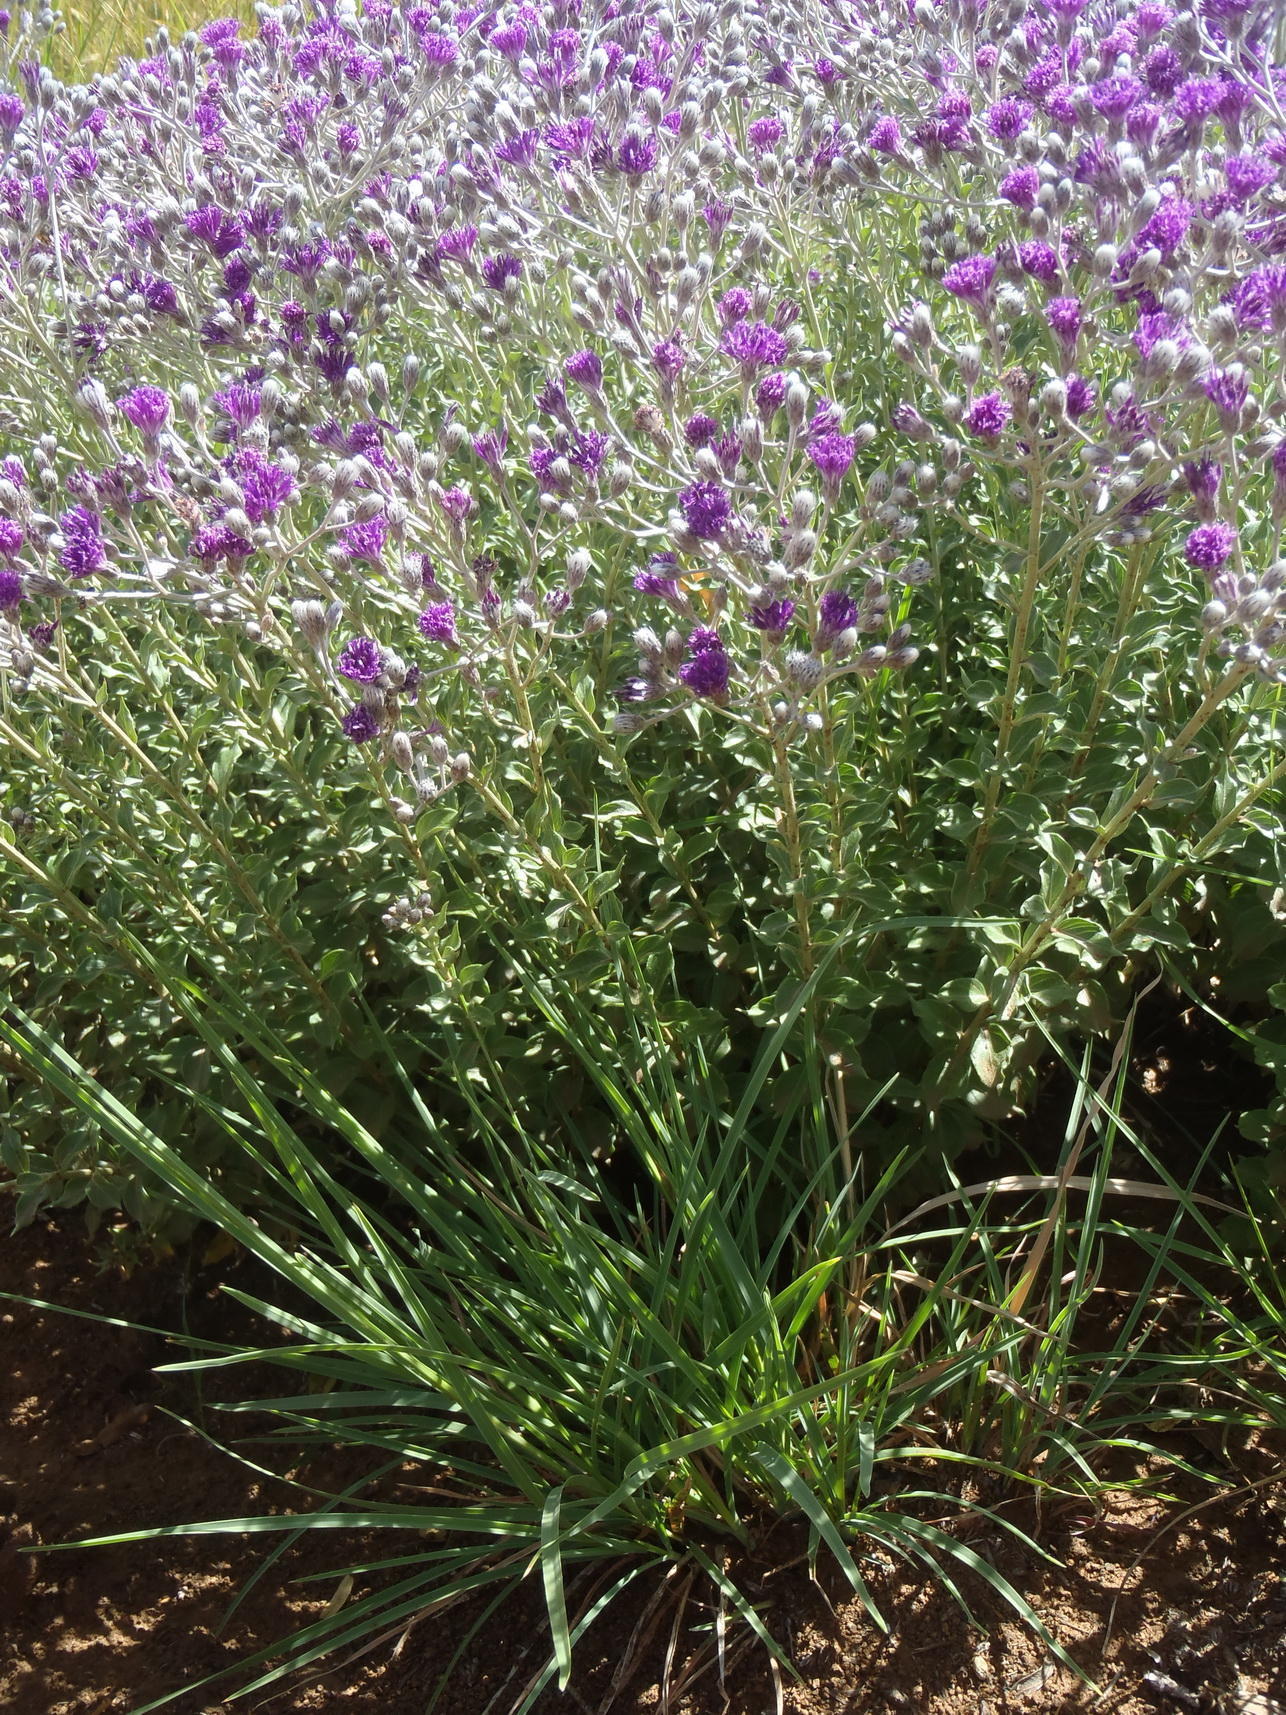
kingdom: Plantae
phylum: Tracheophyta
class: Magnoliopsida
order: Asterales
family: Asteraceae
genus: Hilliardiella
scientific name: Hilliardiella oligocephala
